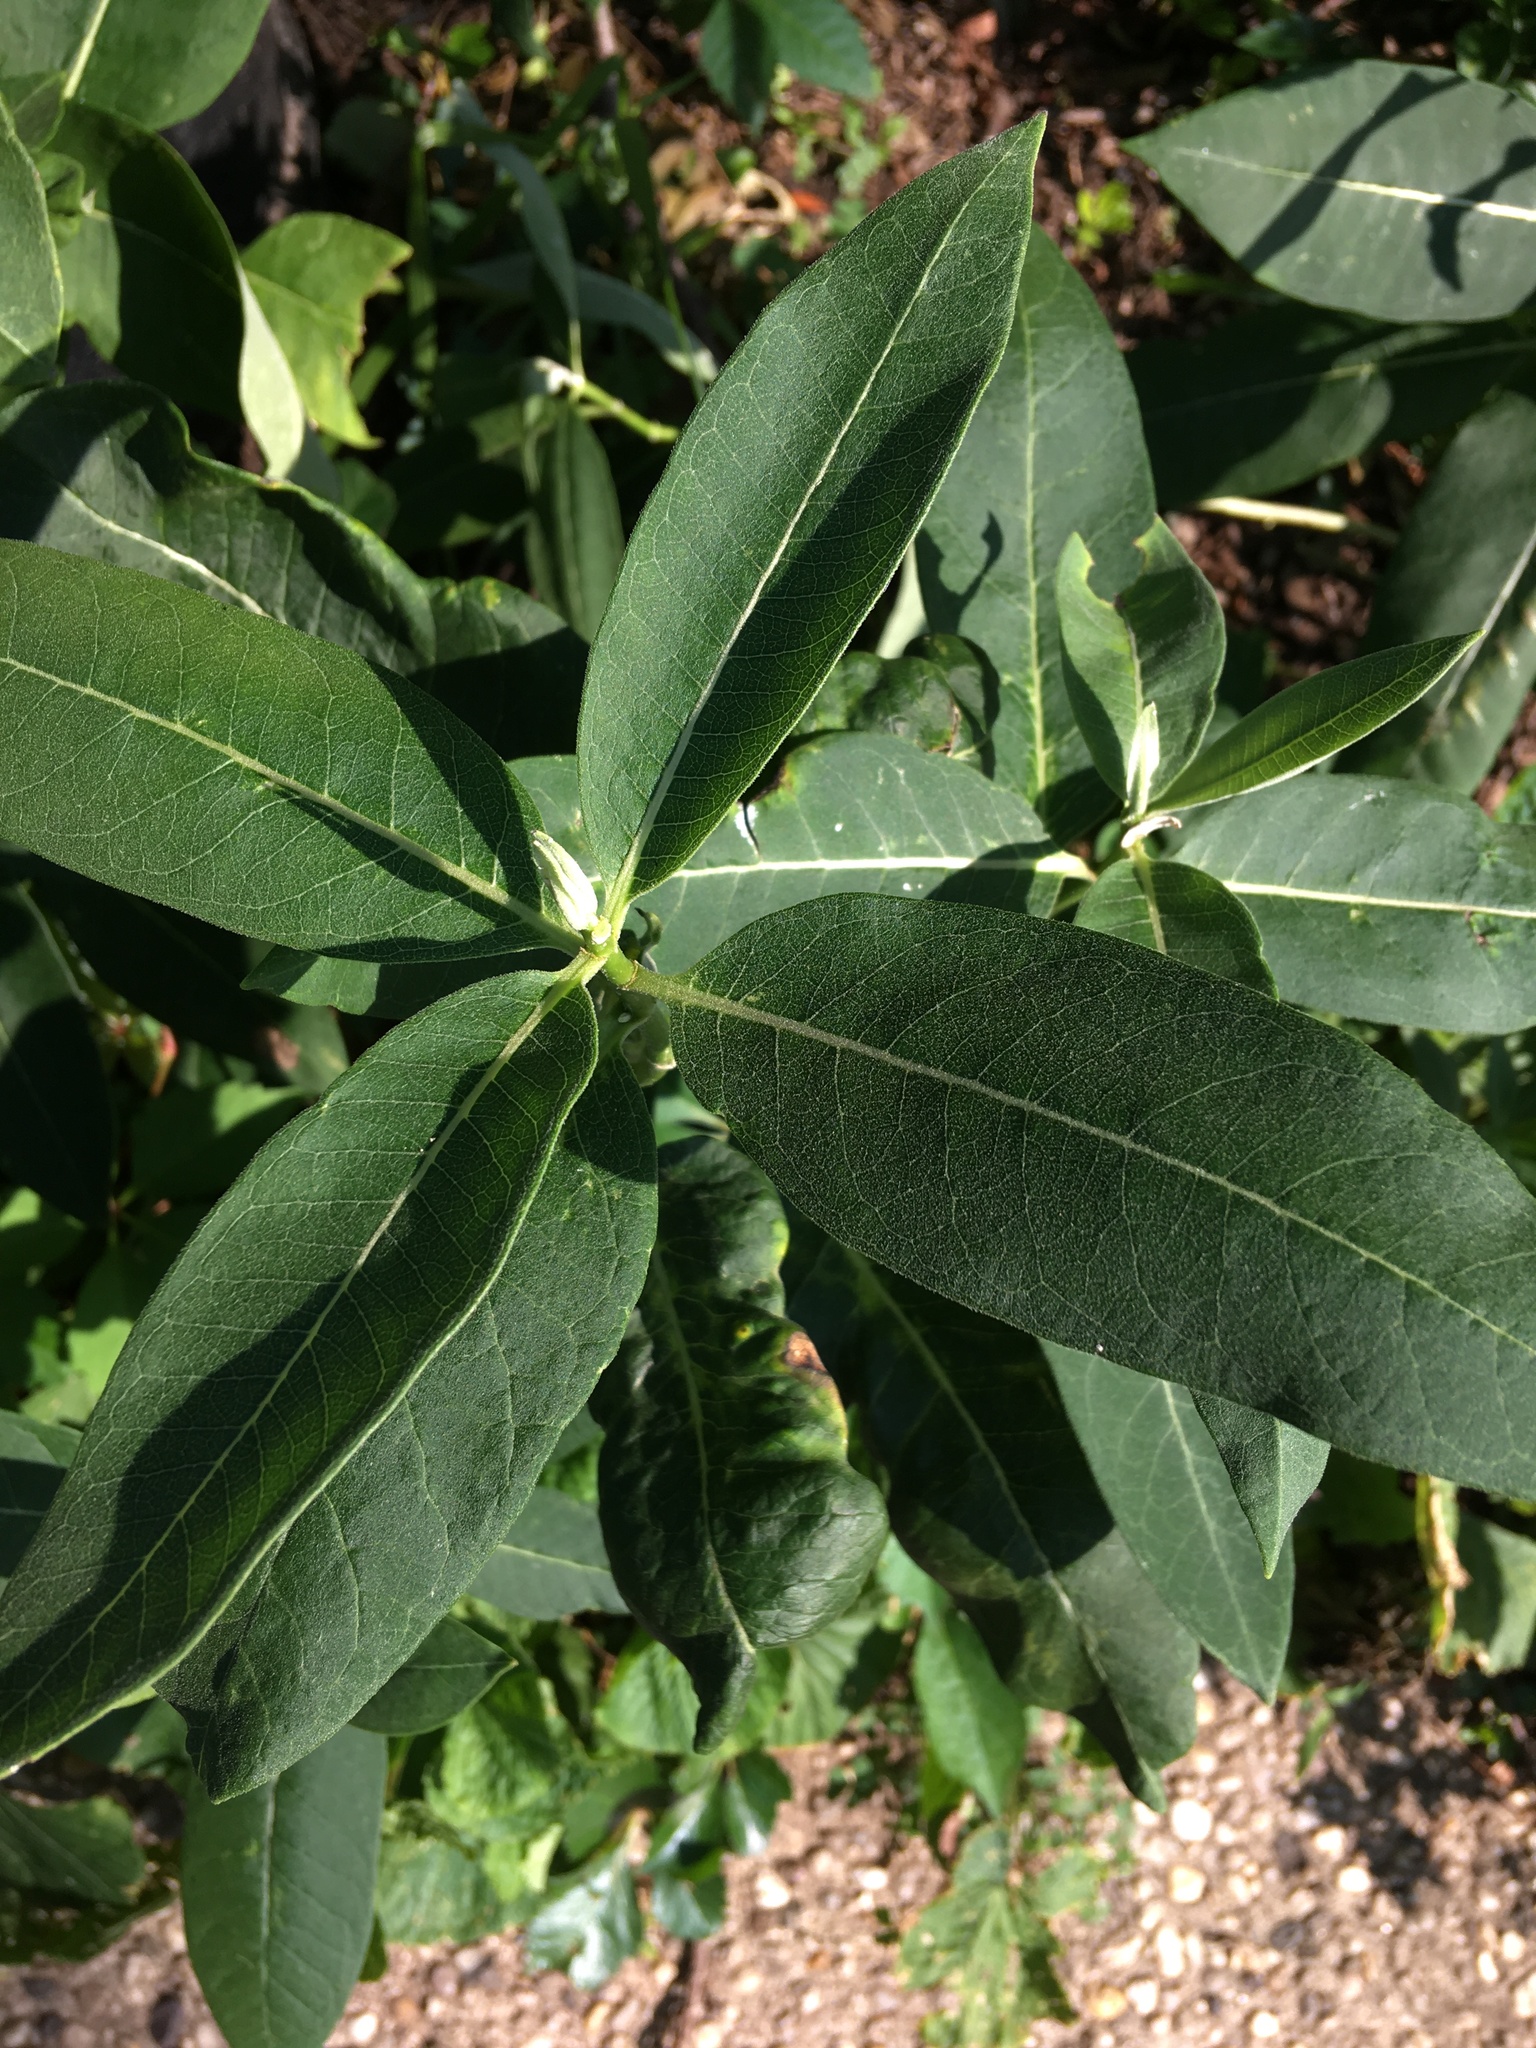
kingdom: Plantae
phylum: Tracheophyta
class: Magnoliopsida
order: Gentianales
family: Apocynaceae
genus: Asclepias
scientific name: Asclepias syriaca
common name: Common milkweed
